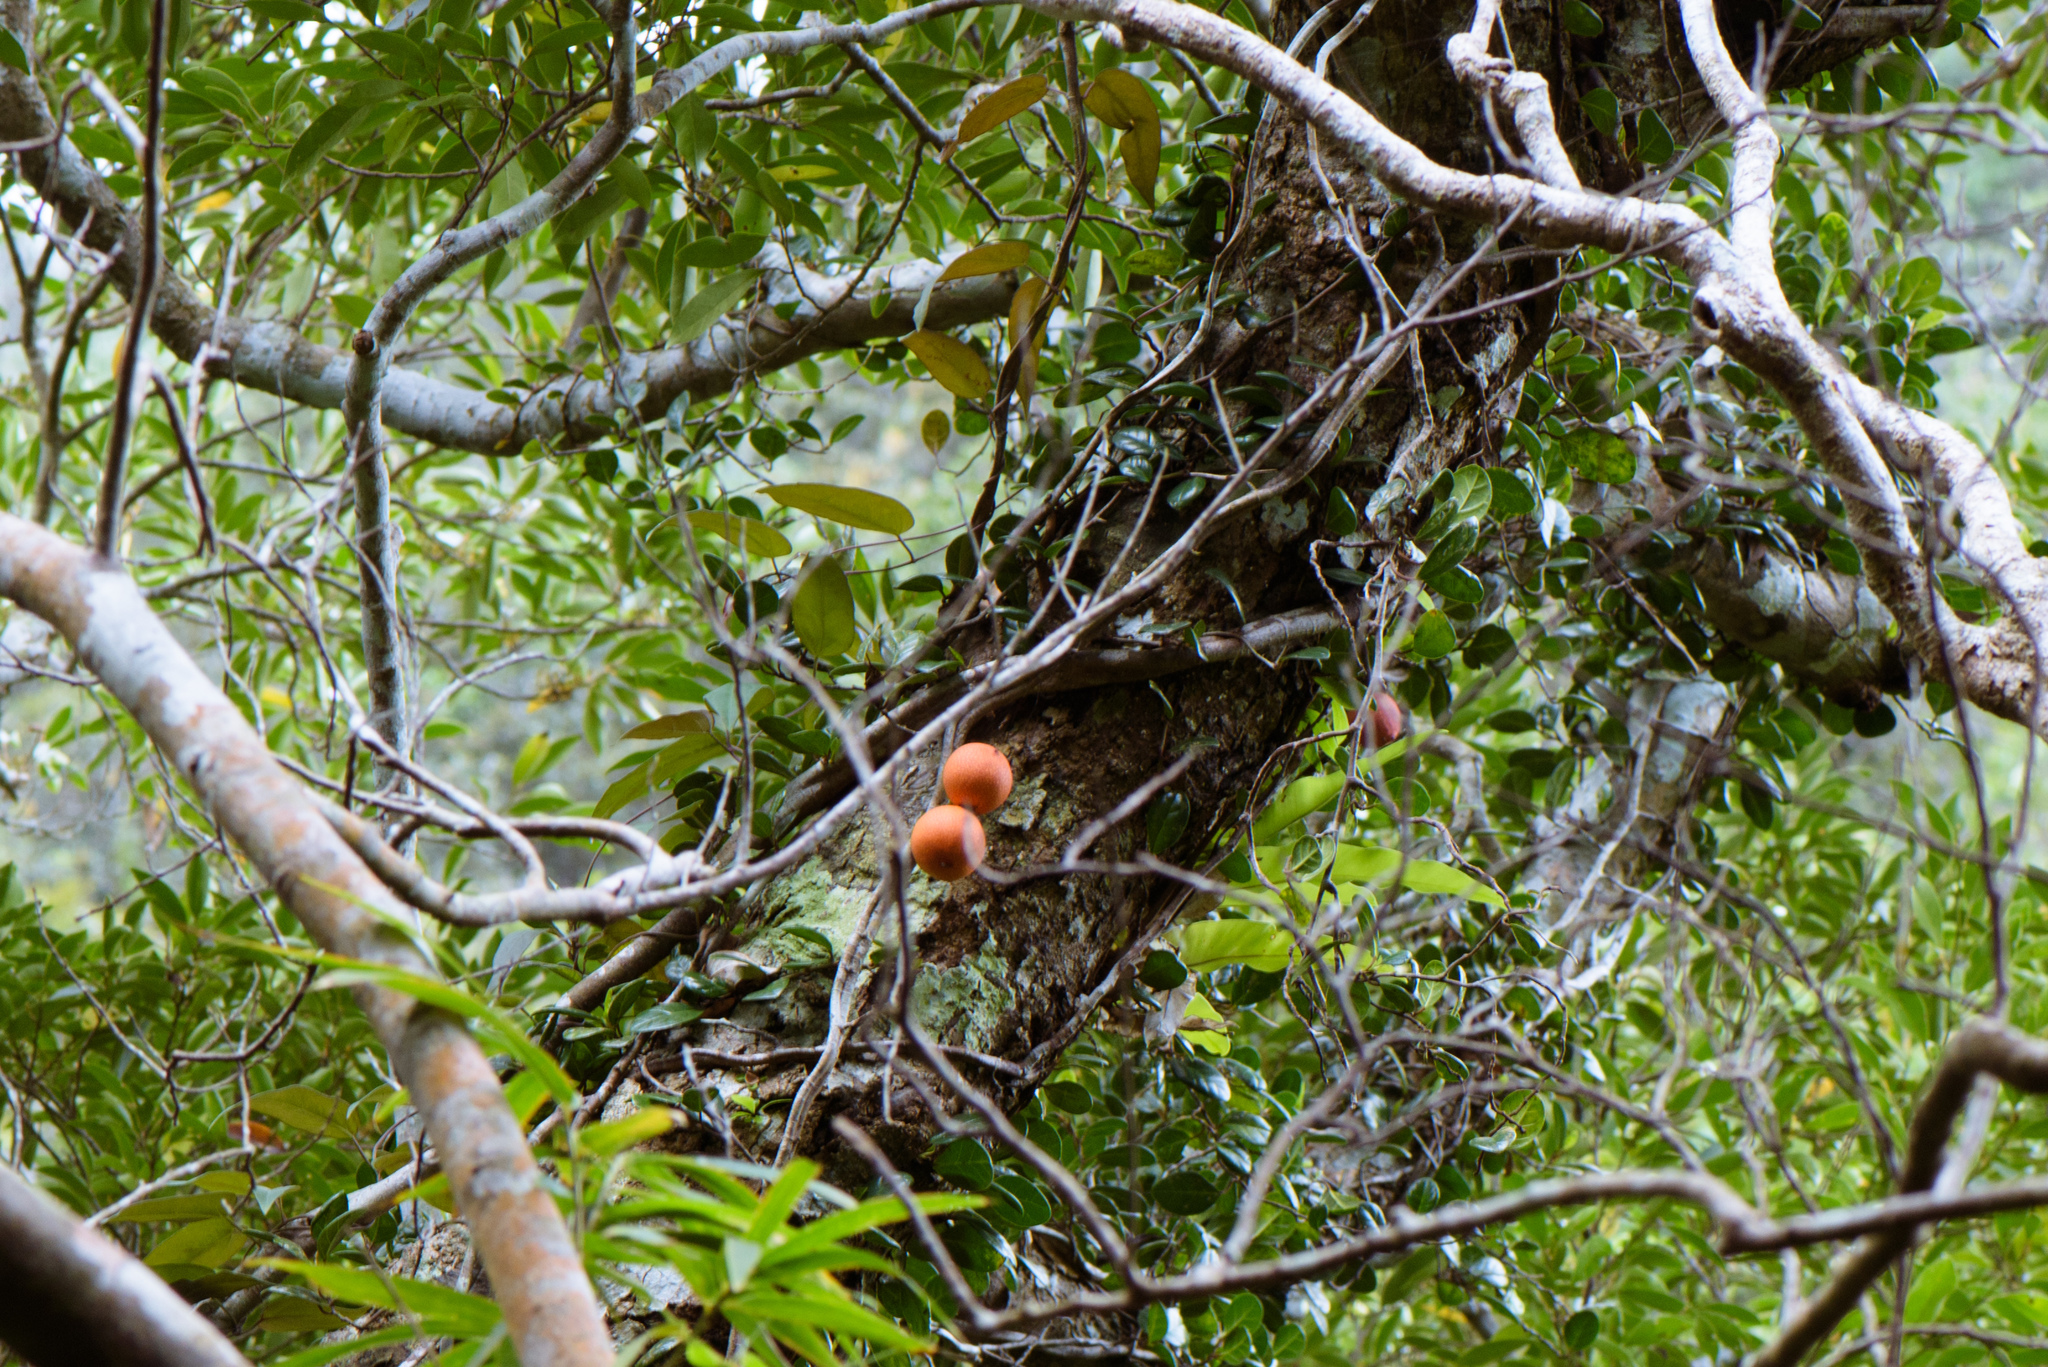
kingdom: Plantae
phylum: Tracheophyta
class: Magnoliopsida
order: Rosales
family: Moraceae
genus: Ficus
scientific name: Ficus punctata
